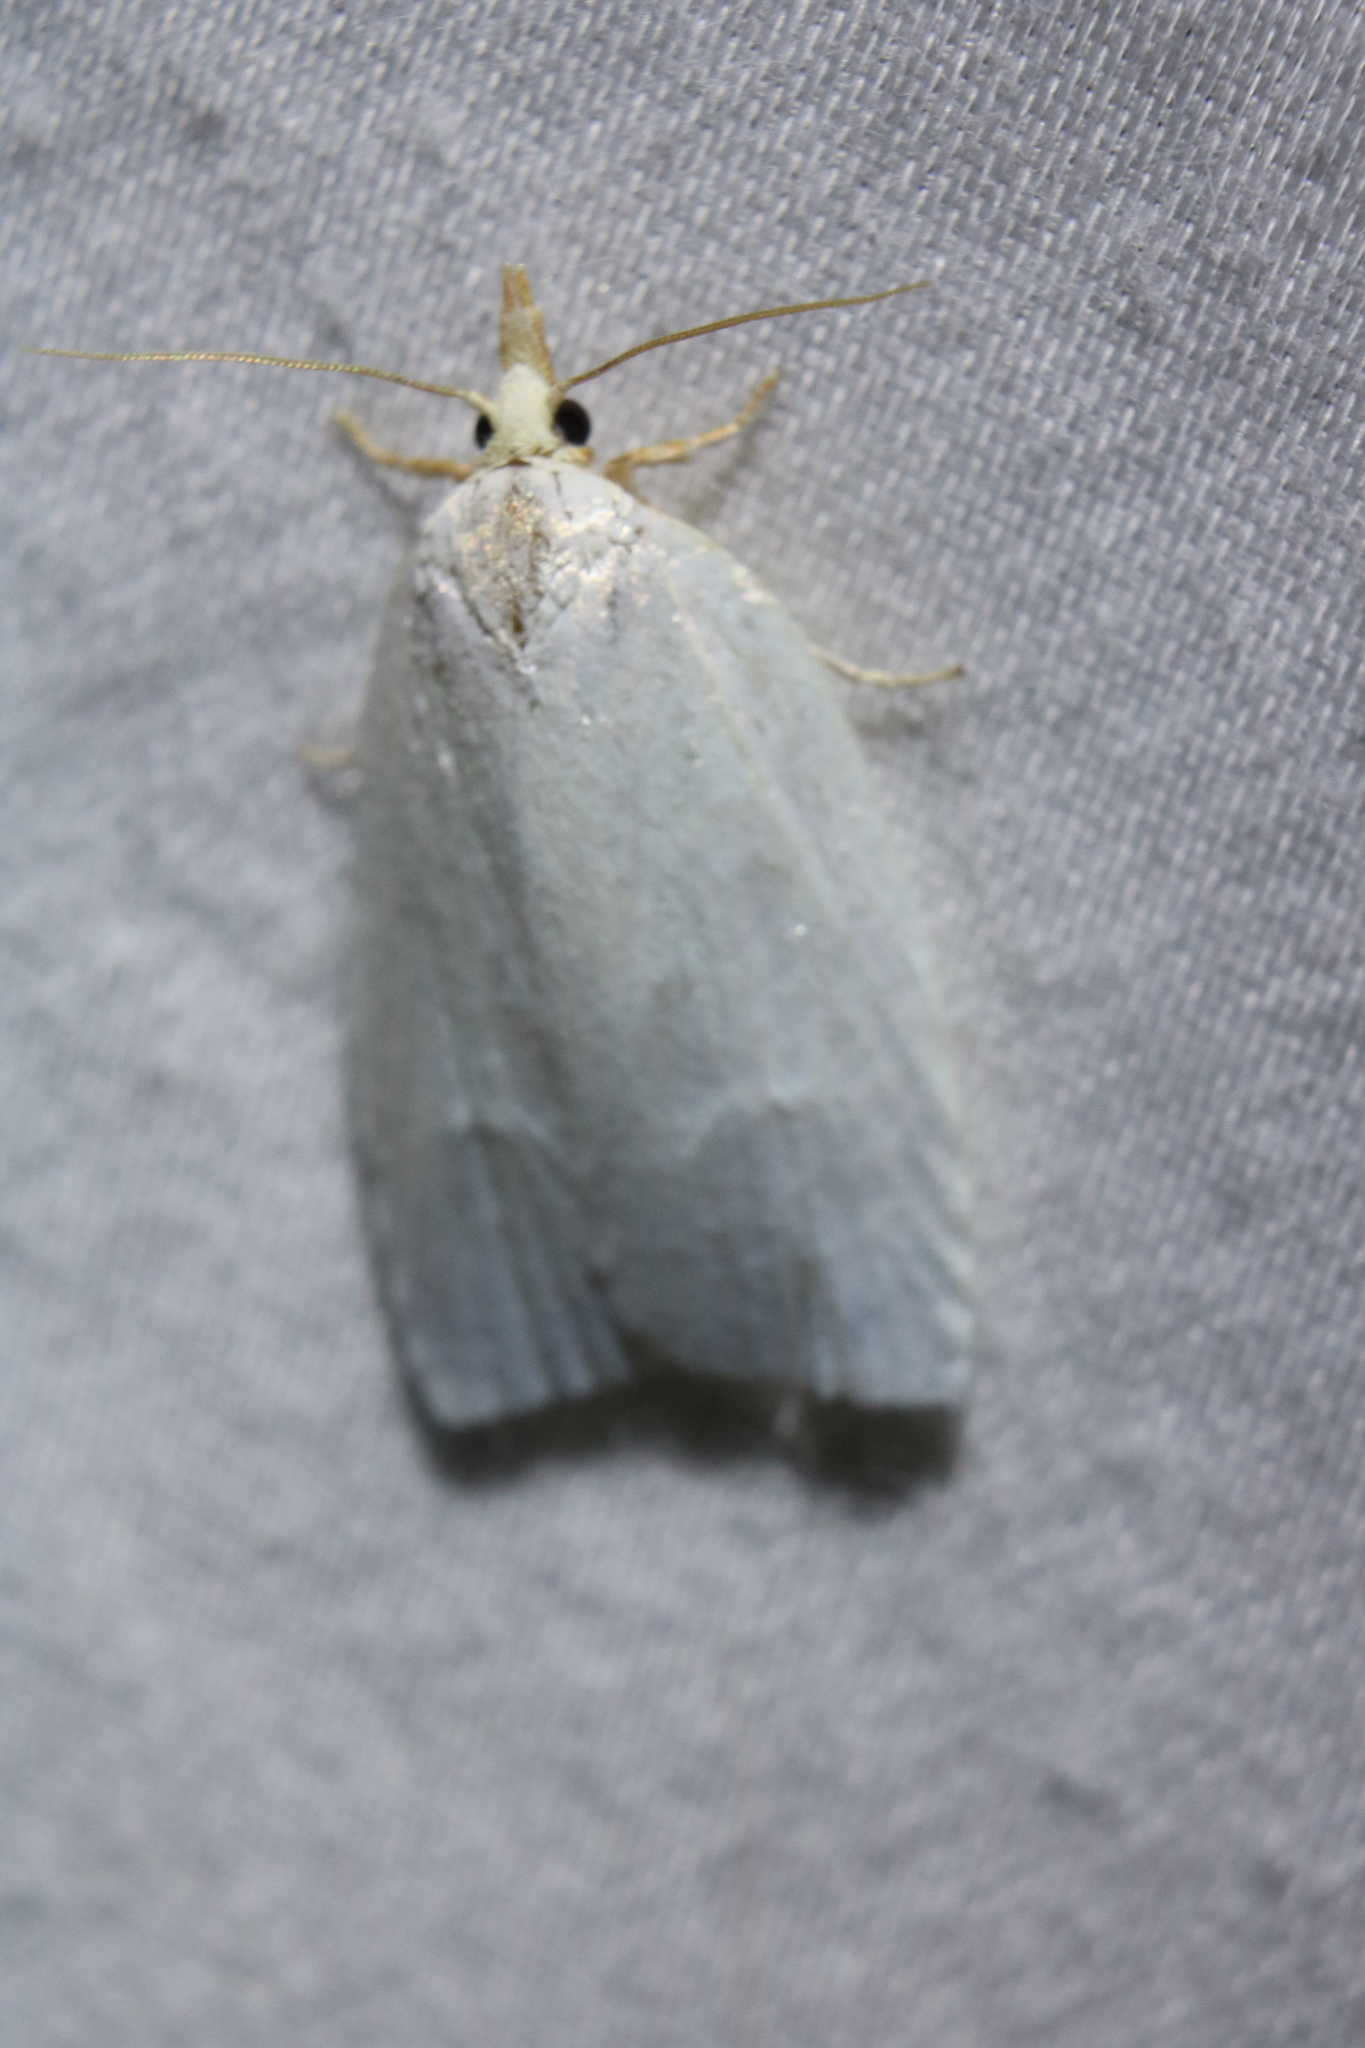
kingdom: Animalia
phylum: Arthropoda
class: Insecta
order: Lepidoptera
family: Tortricidae
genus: Cenopis
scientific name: Cenopis pettitana
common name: Maple-basswood leafroller moth
